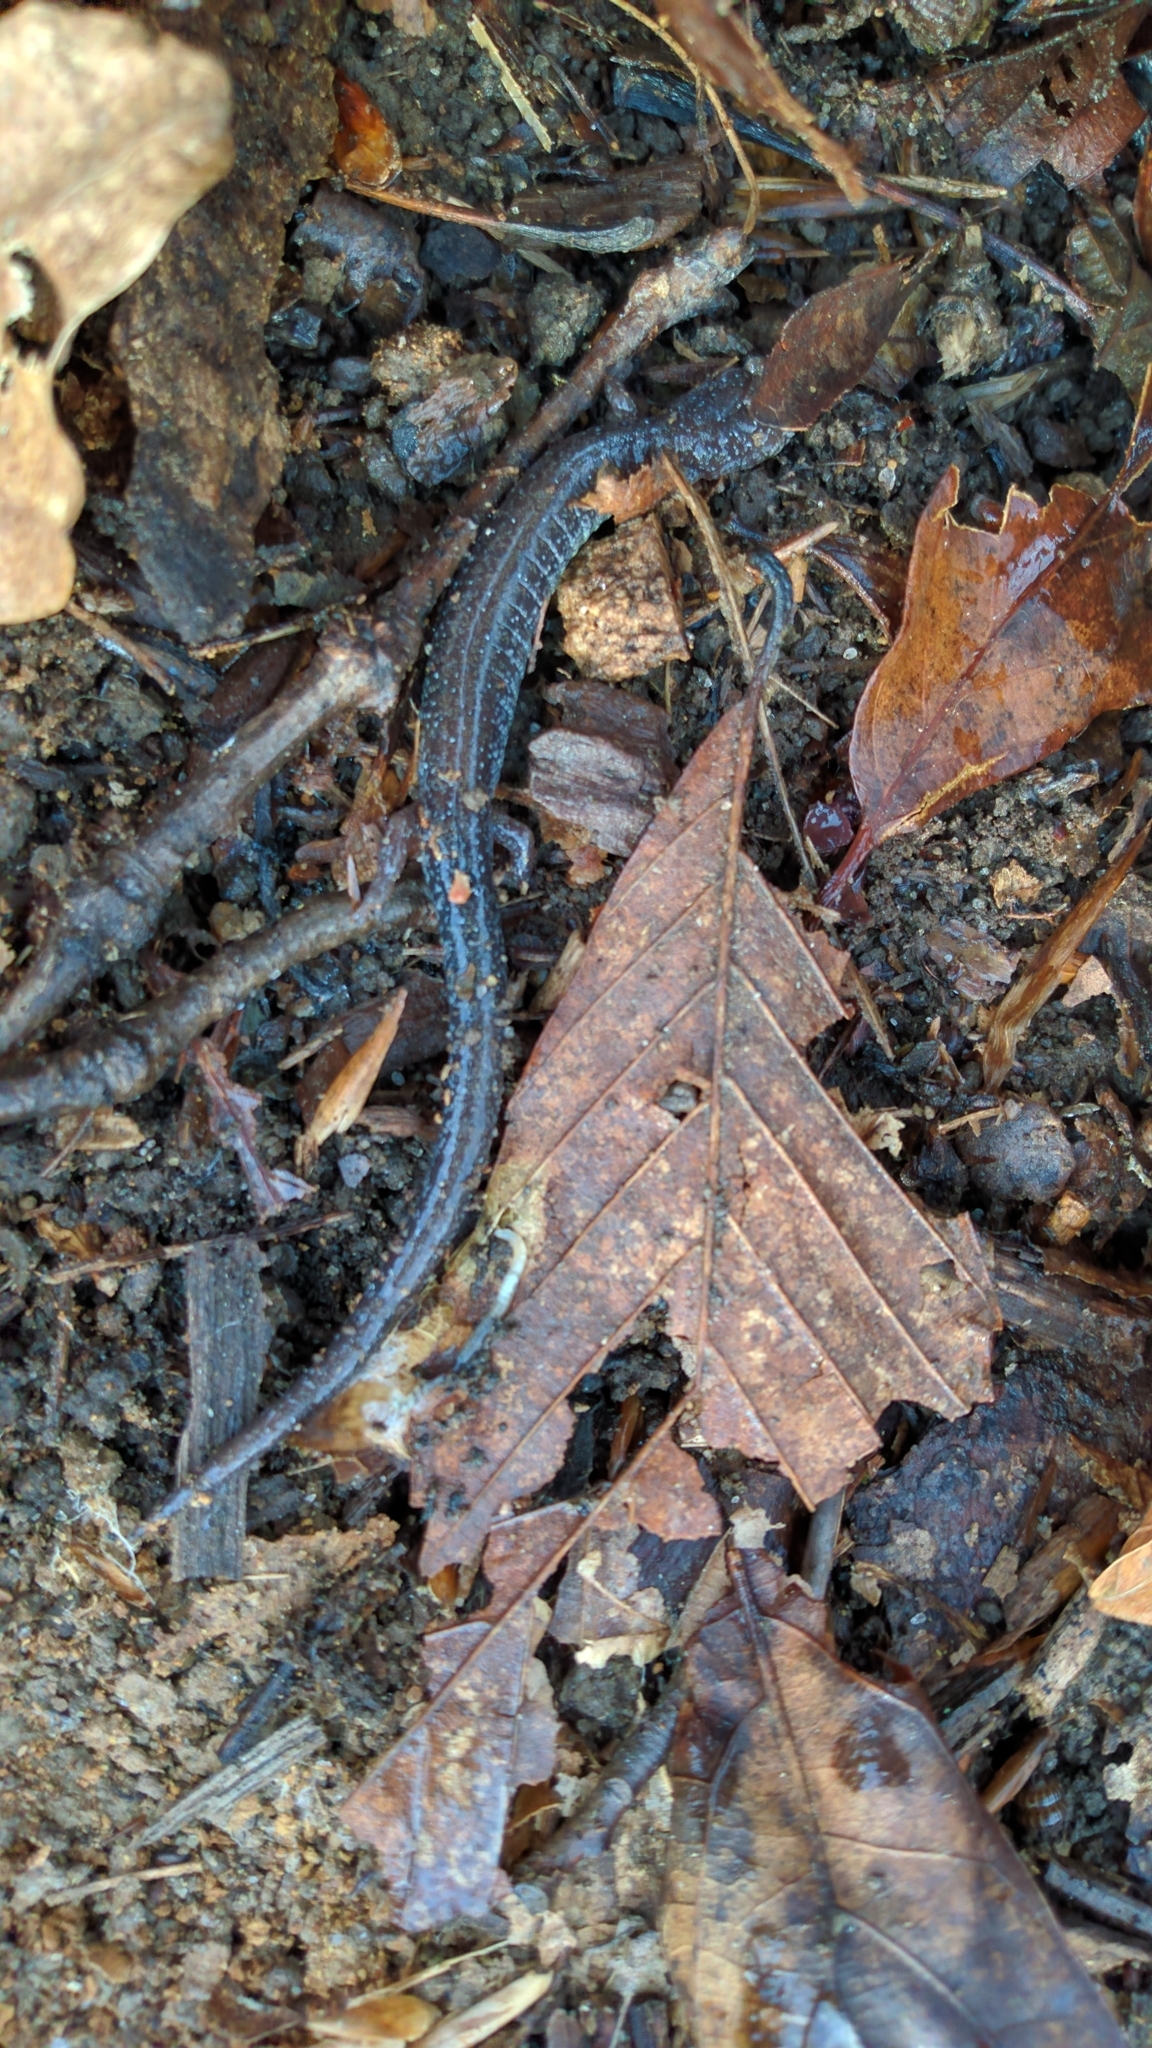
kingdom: Animalia
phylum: Chordata
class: Amphibia
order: Caudata
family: Plethodontidae
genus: Plethodon
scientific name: Plethodon cinereus
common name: Redback salamander
